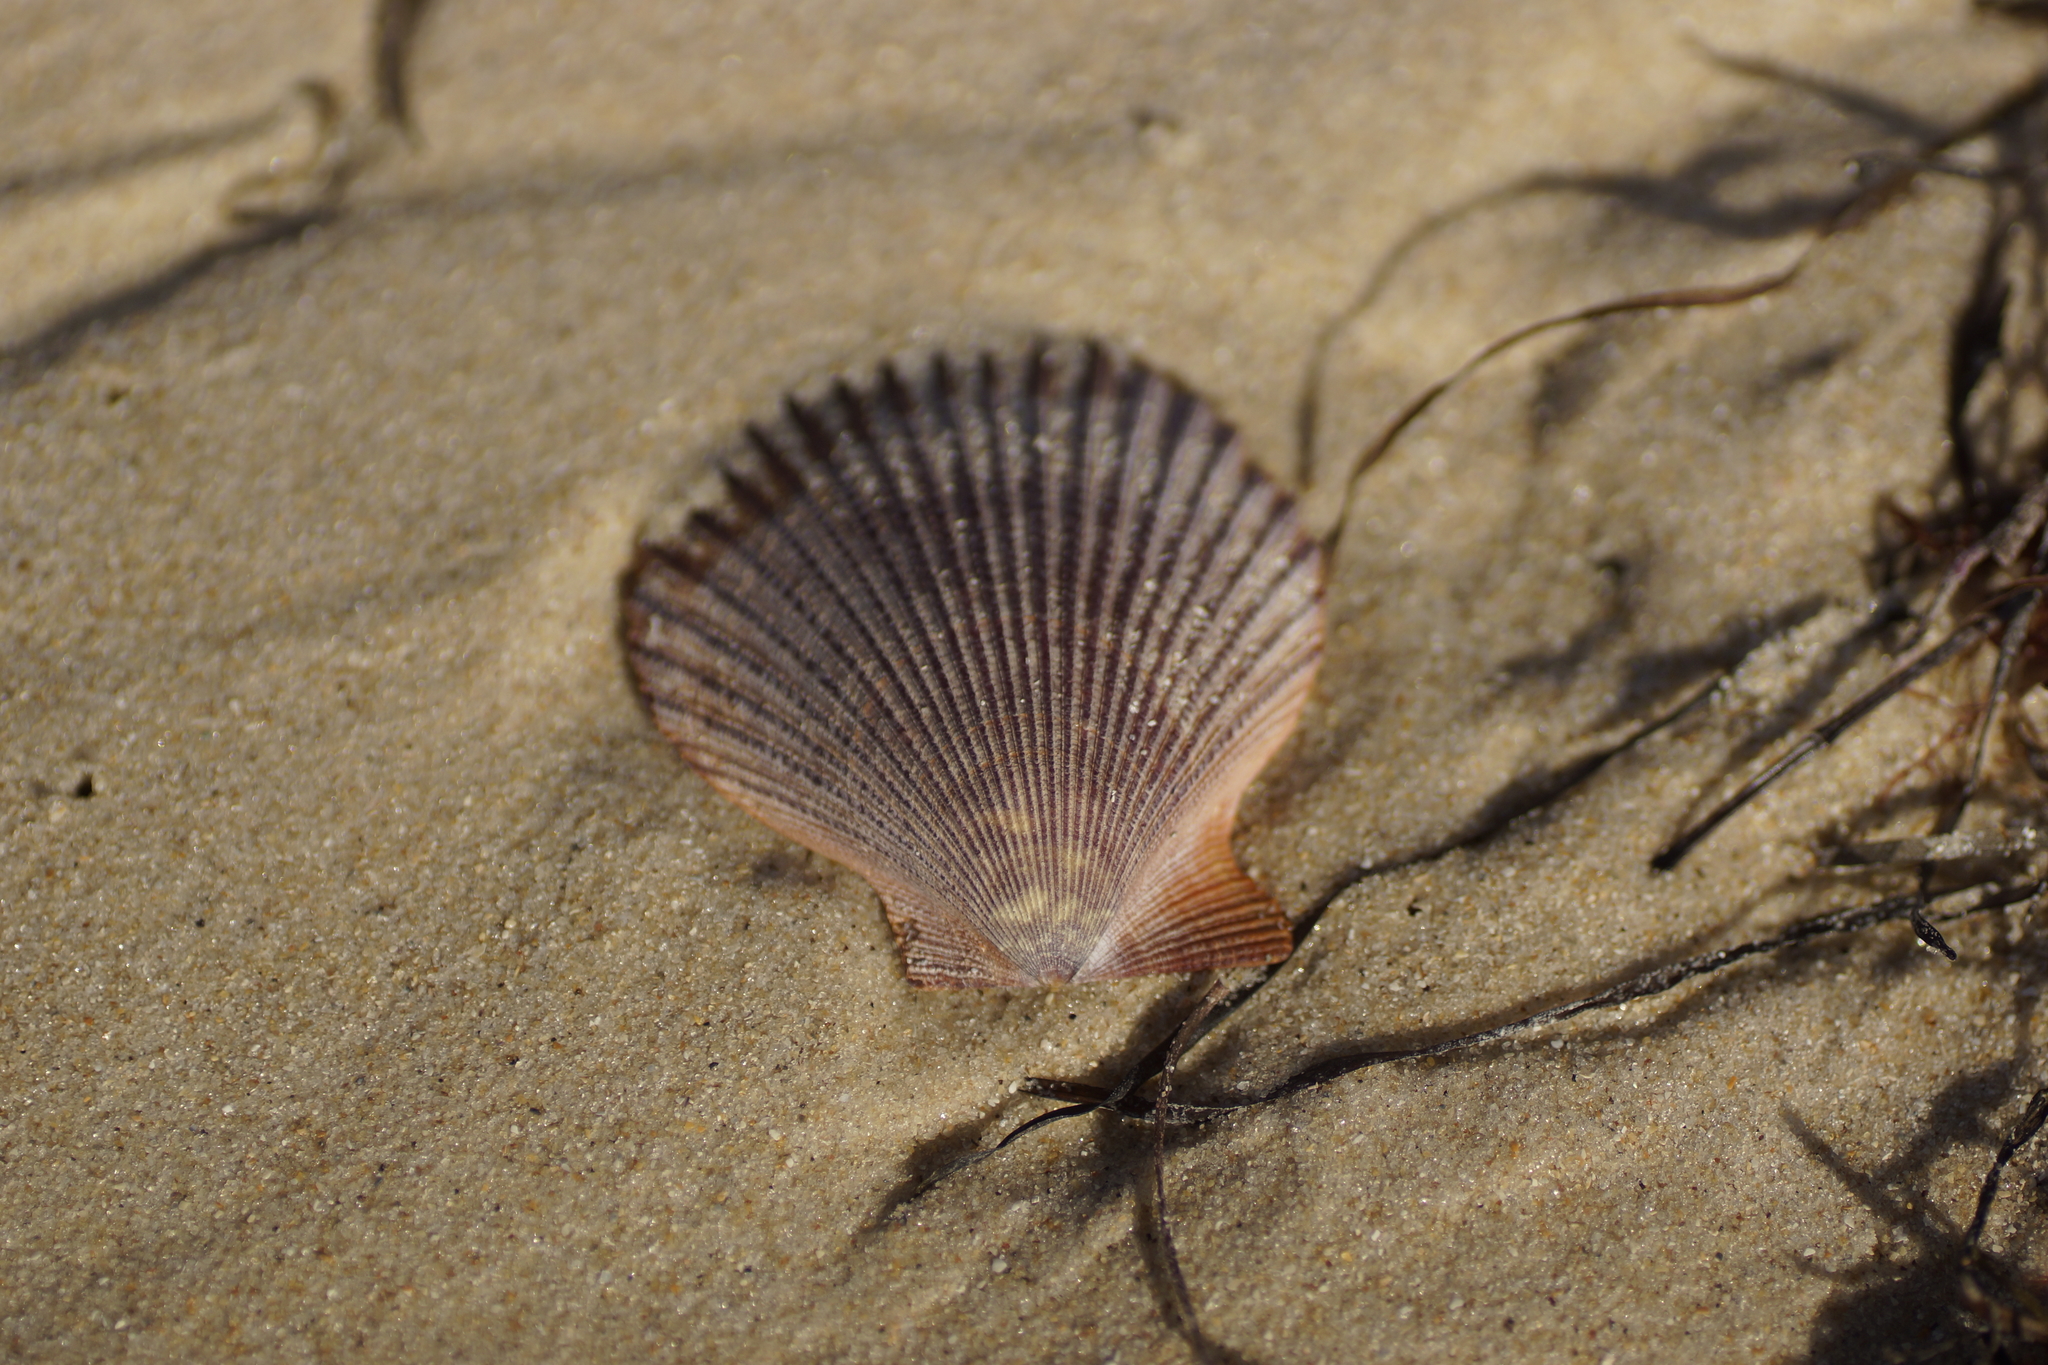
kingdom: Animalia
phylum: Mollusca
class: Bivalvia
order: Pectinida
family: Pectinidae
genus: Mimachlamys
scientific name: Mimachlamys asperrima
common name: Austral scallop
